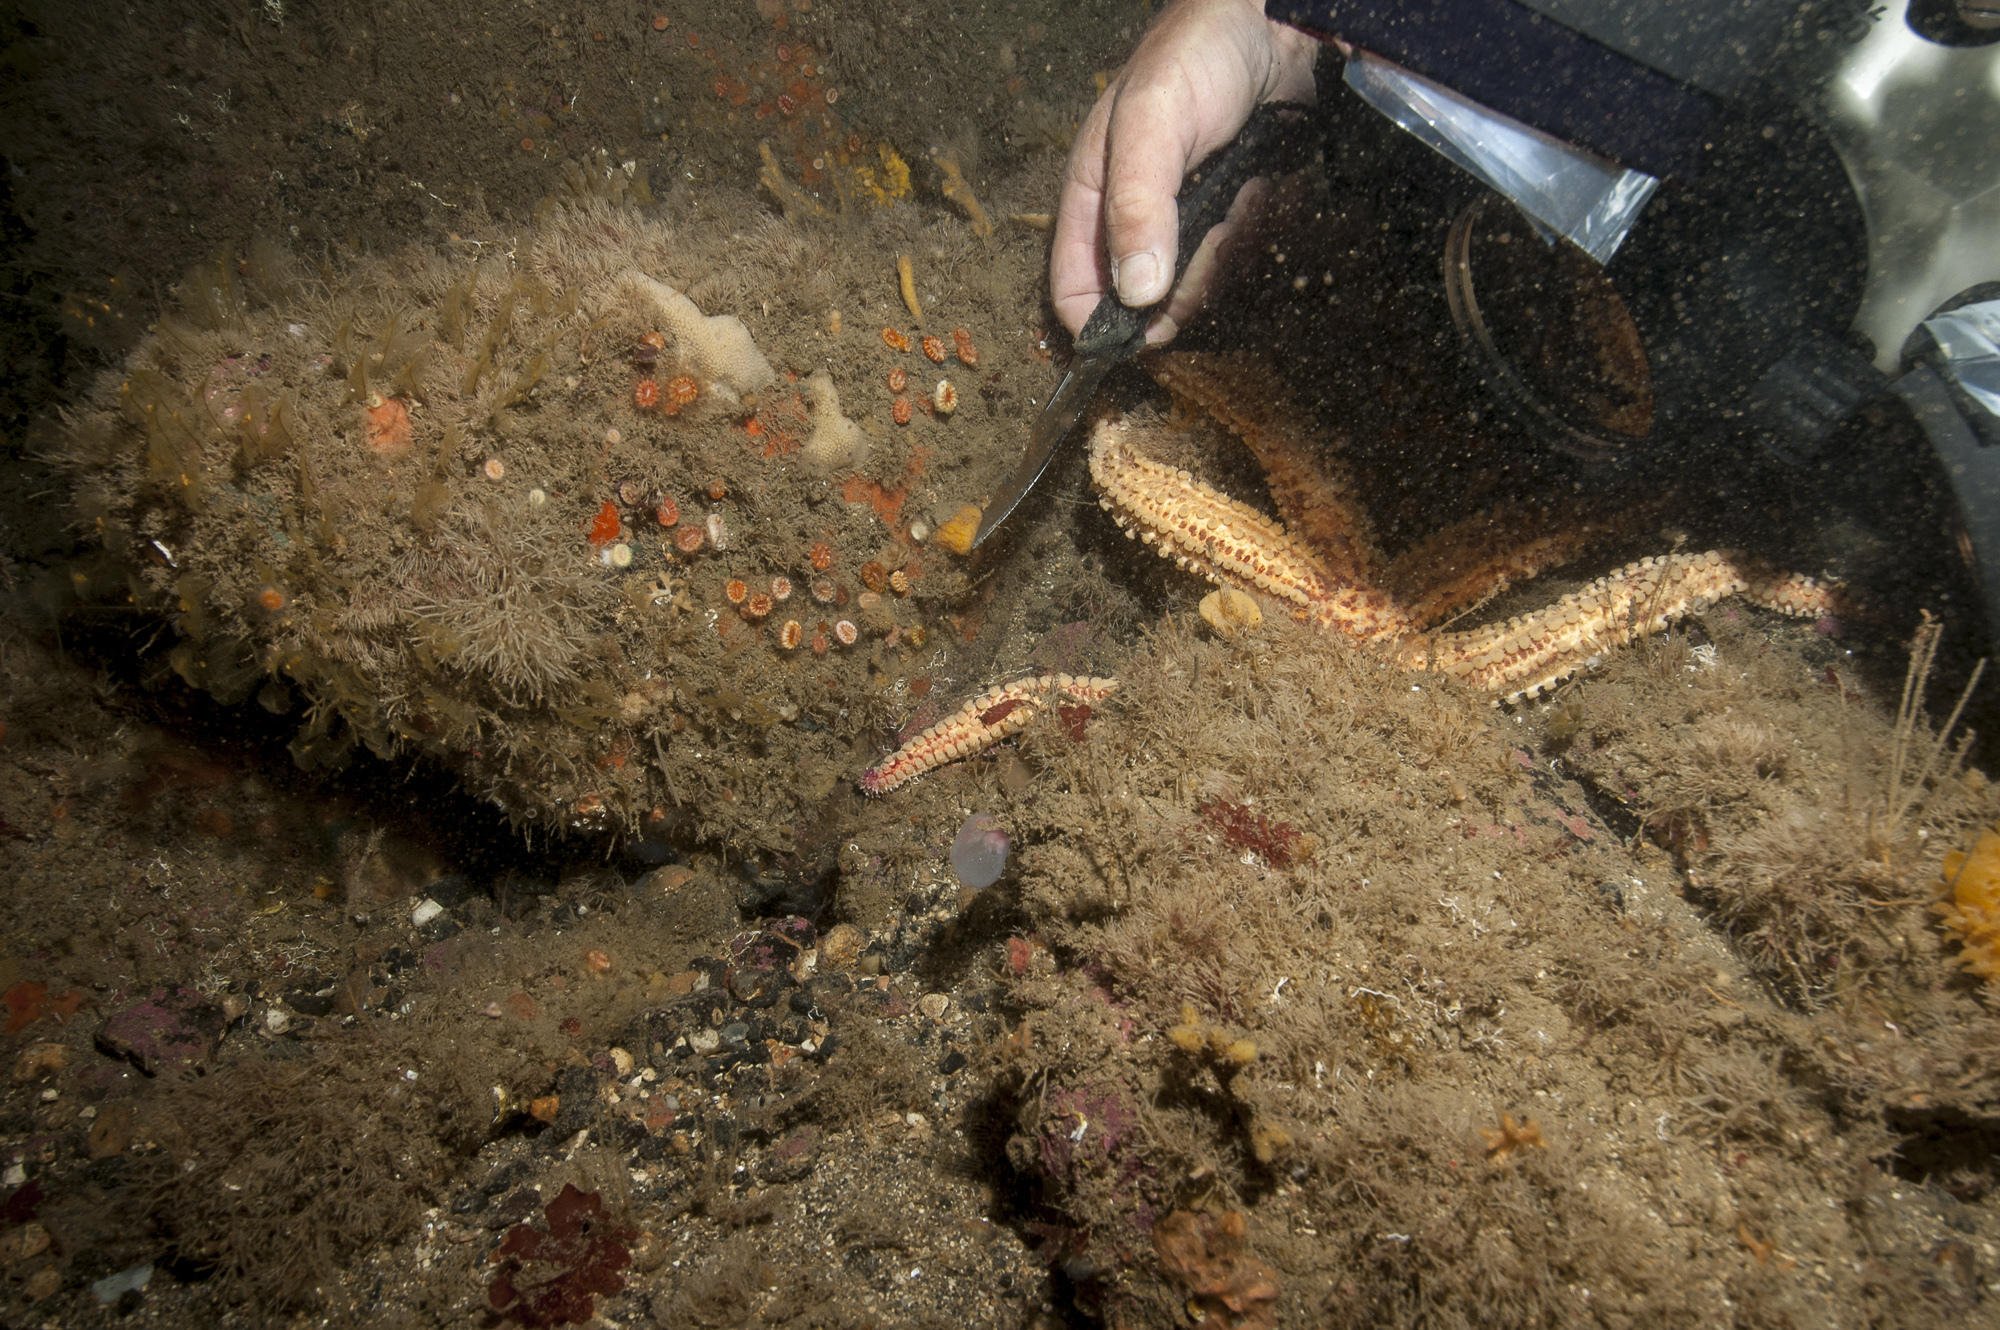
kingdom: Animalia
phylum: Porifera
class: Demospongiae
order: Axinellida
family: Axinellidae
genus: Axinella
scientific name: Axinella parva
